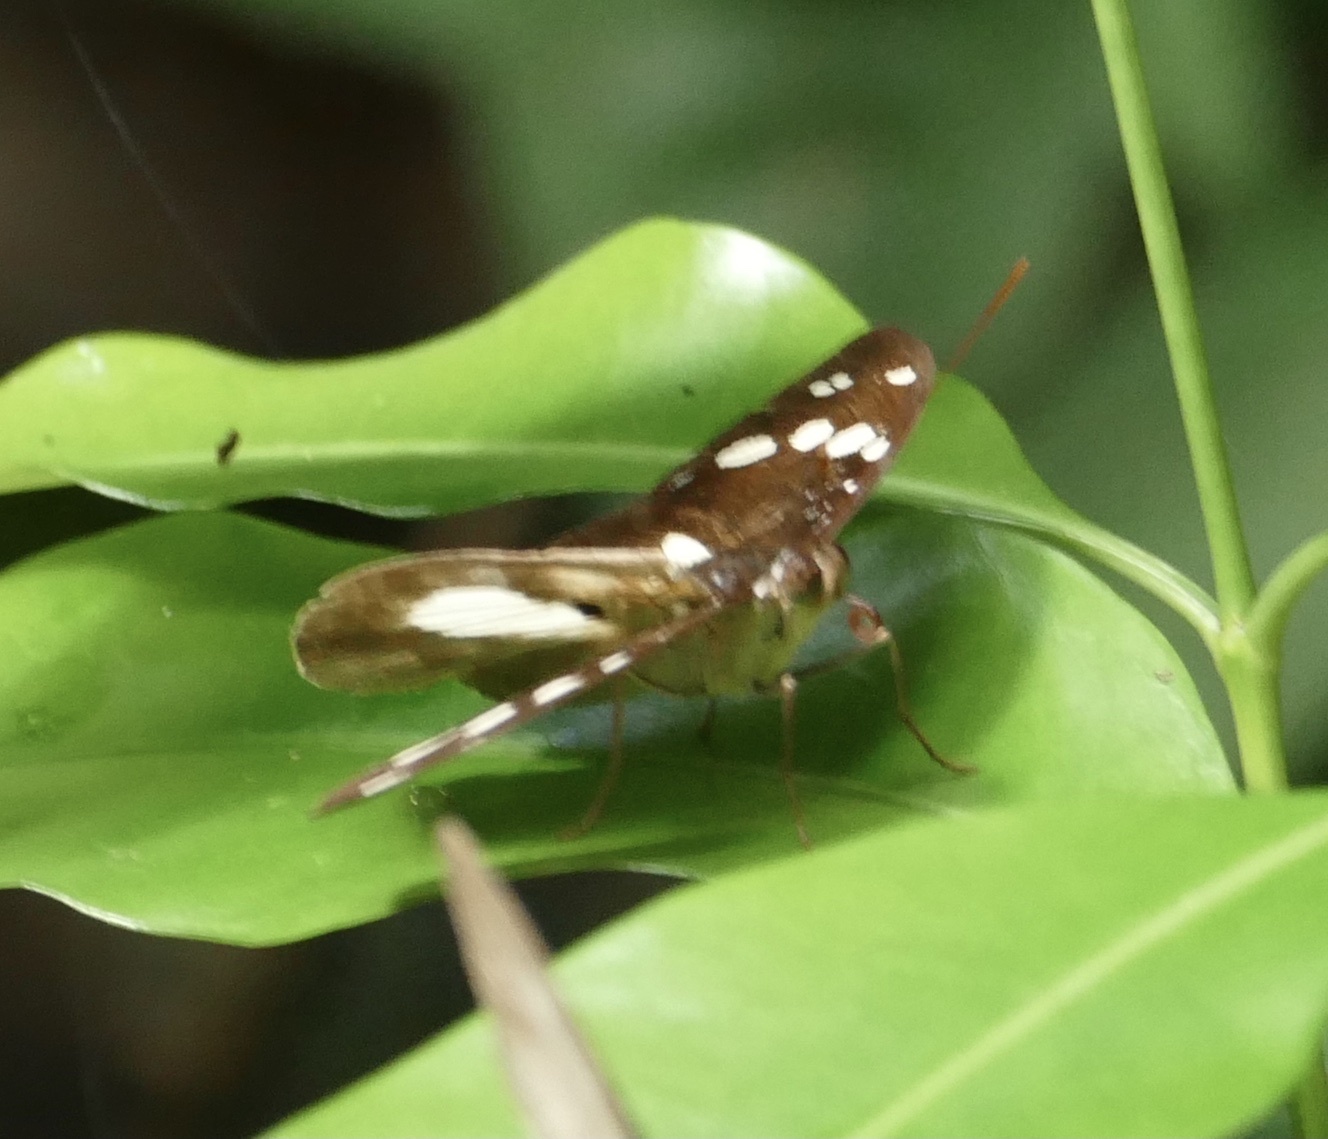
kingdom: Animalia
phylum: Arthropoda
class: Insecta
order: Lepidoptera
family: Nymphalidae
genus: Aterica
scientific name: Aterica galene
